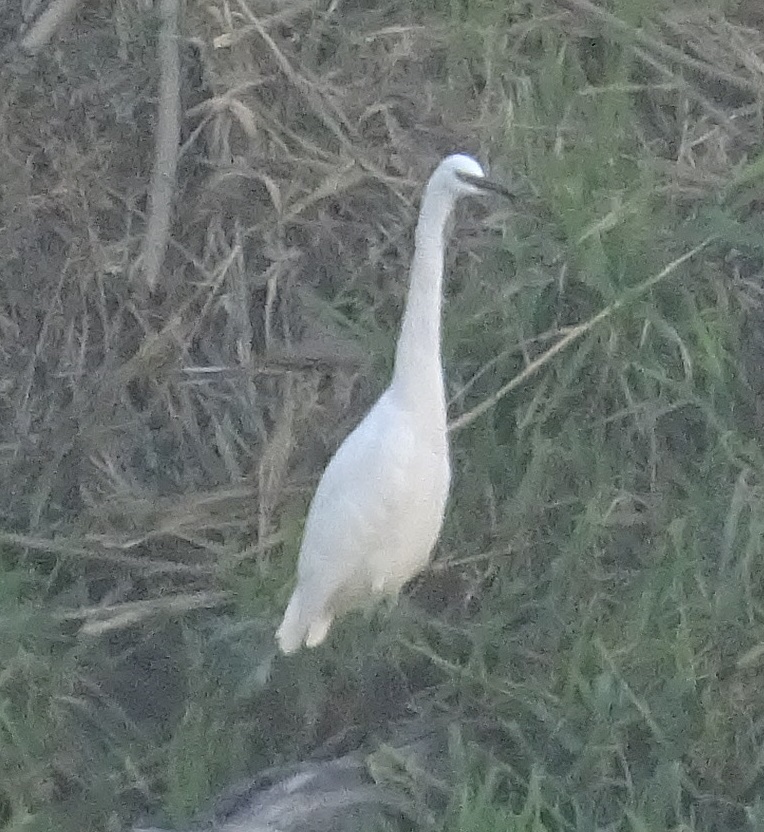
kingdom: Animalia
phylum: Chordata
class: Aves
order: Pelecaniformes
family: Ardeidae
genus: Egretta
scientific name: Egretta garzetta
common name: Little egret
